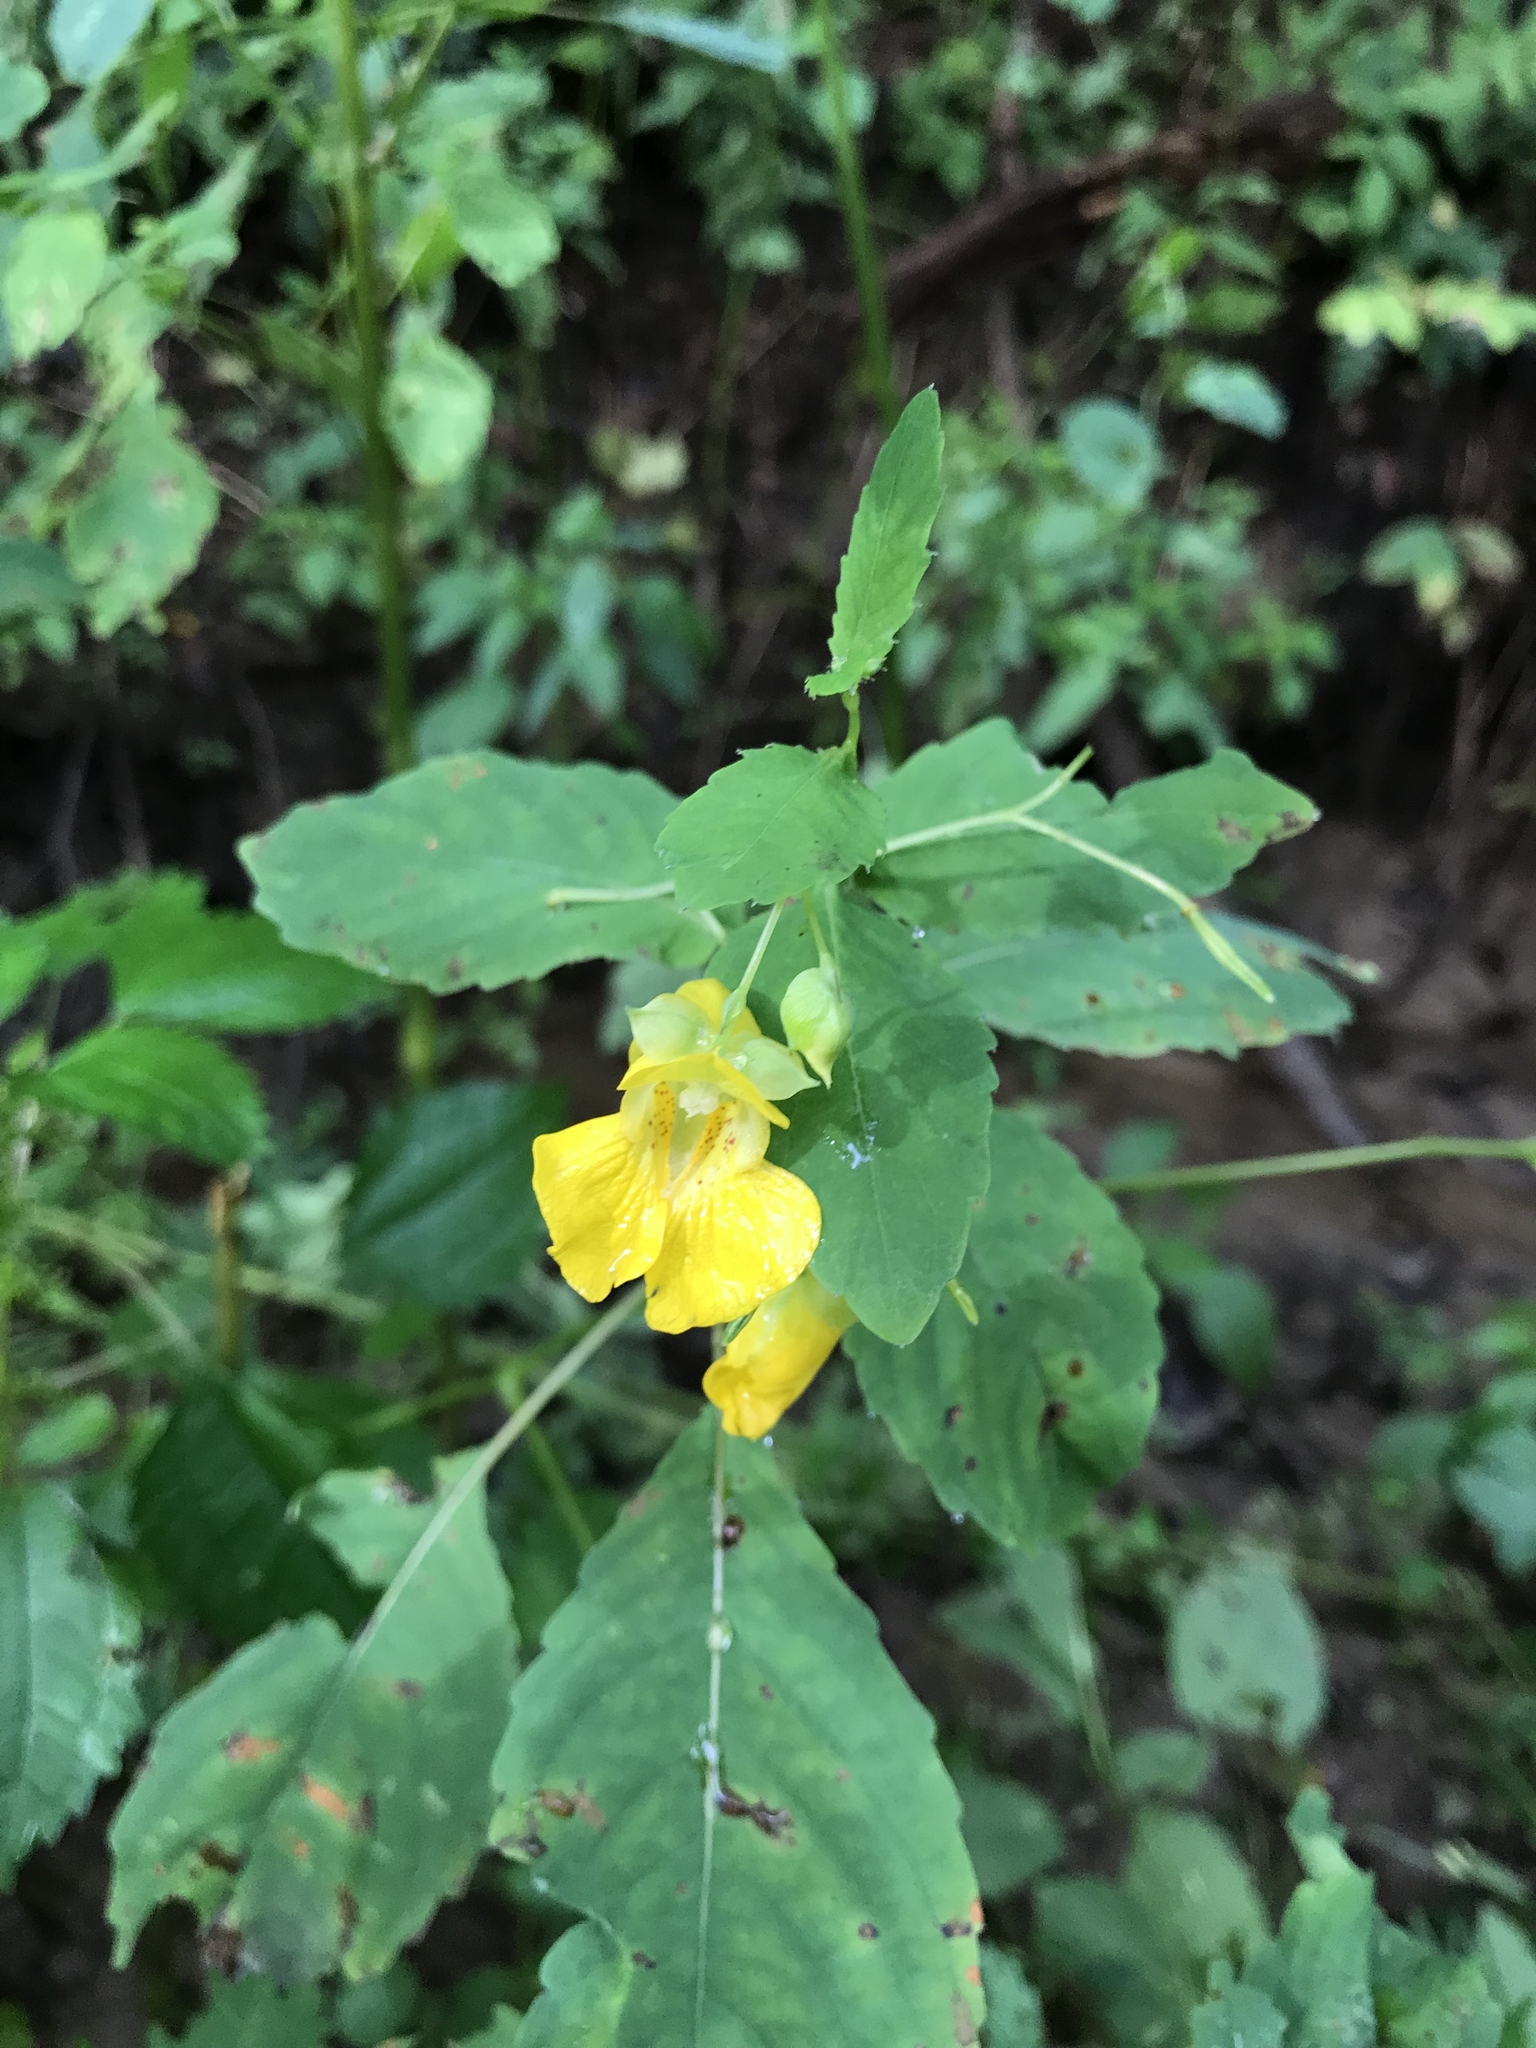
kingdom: Plantae
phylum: Tracheophyta
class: Magnoliopsida
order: Ericales
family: Balsaminaceae
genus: Impatiens
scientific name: Impatiens pallida
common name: Pale snapweed
